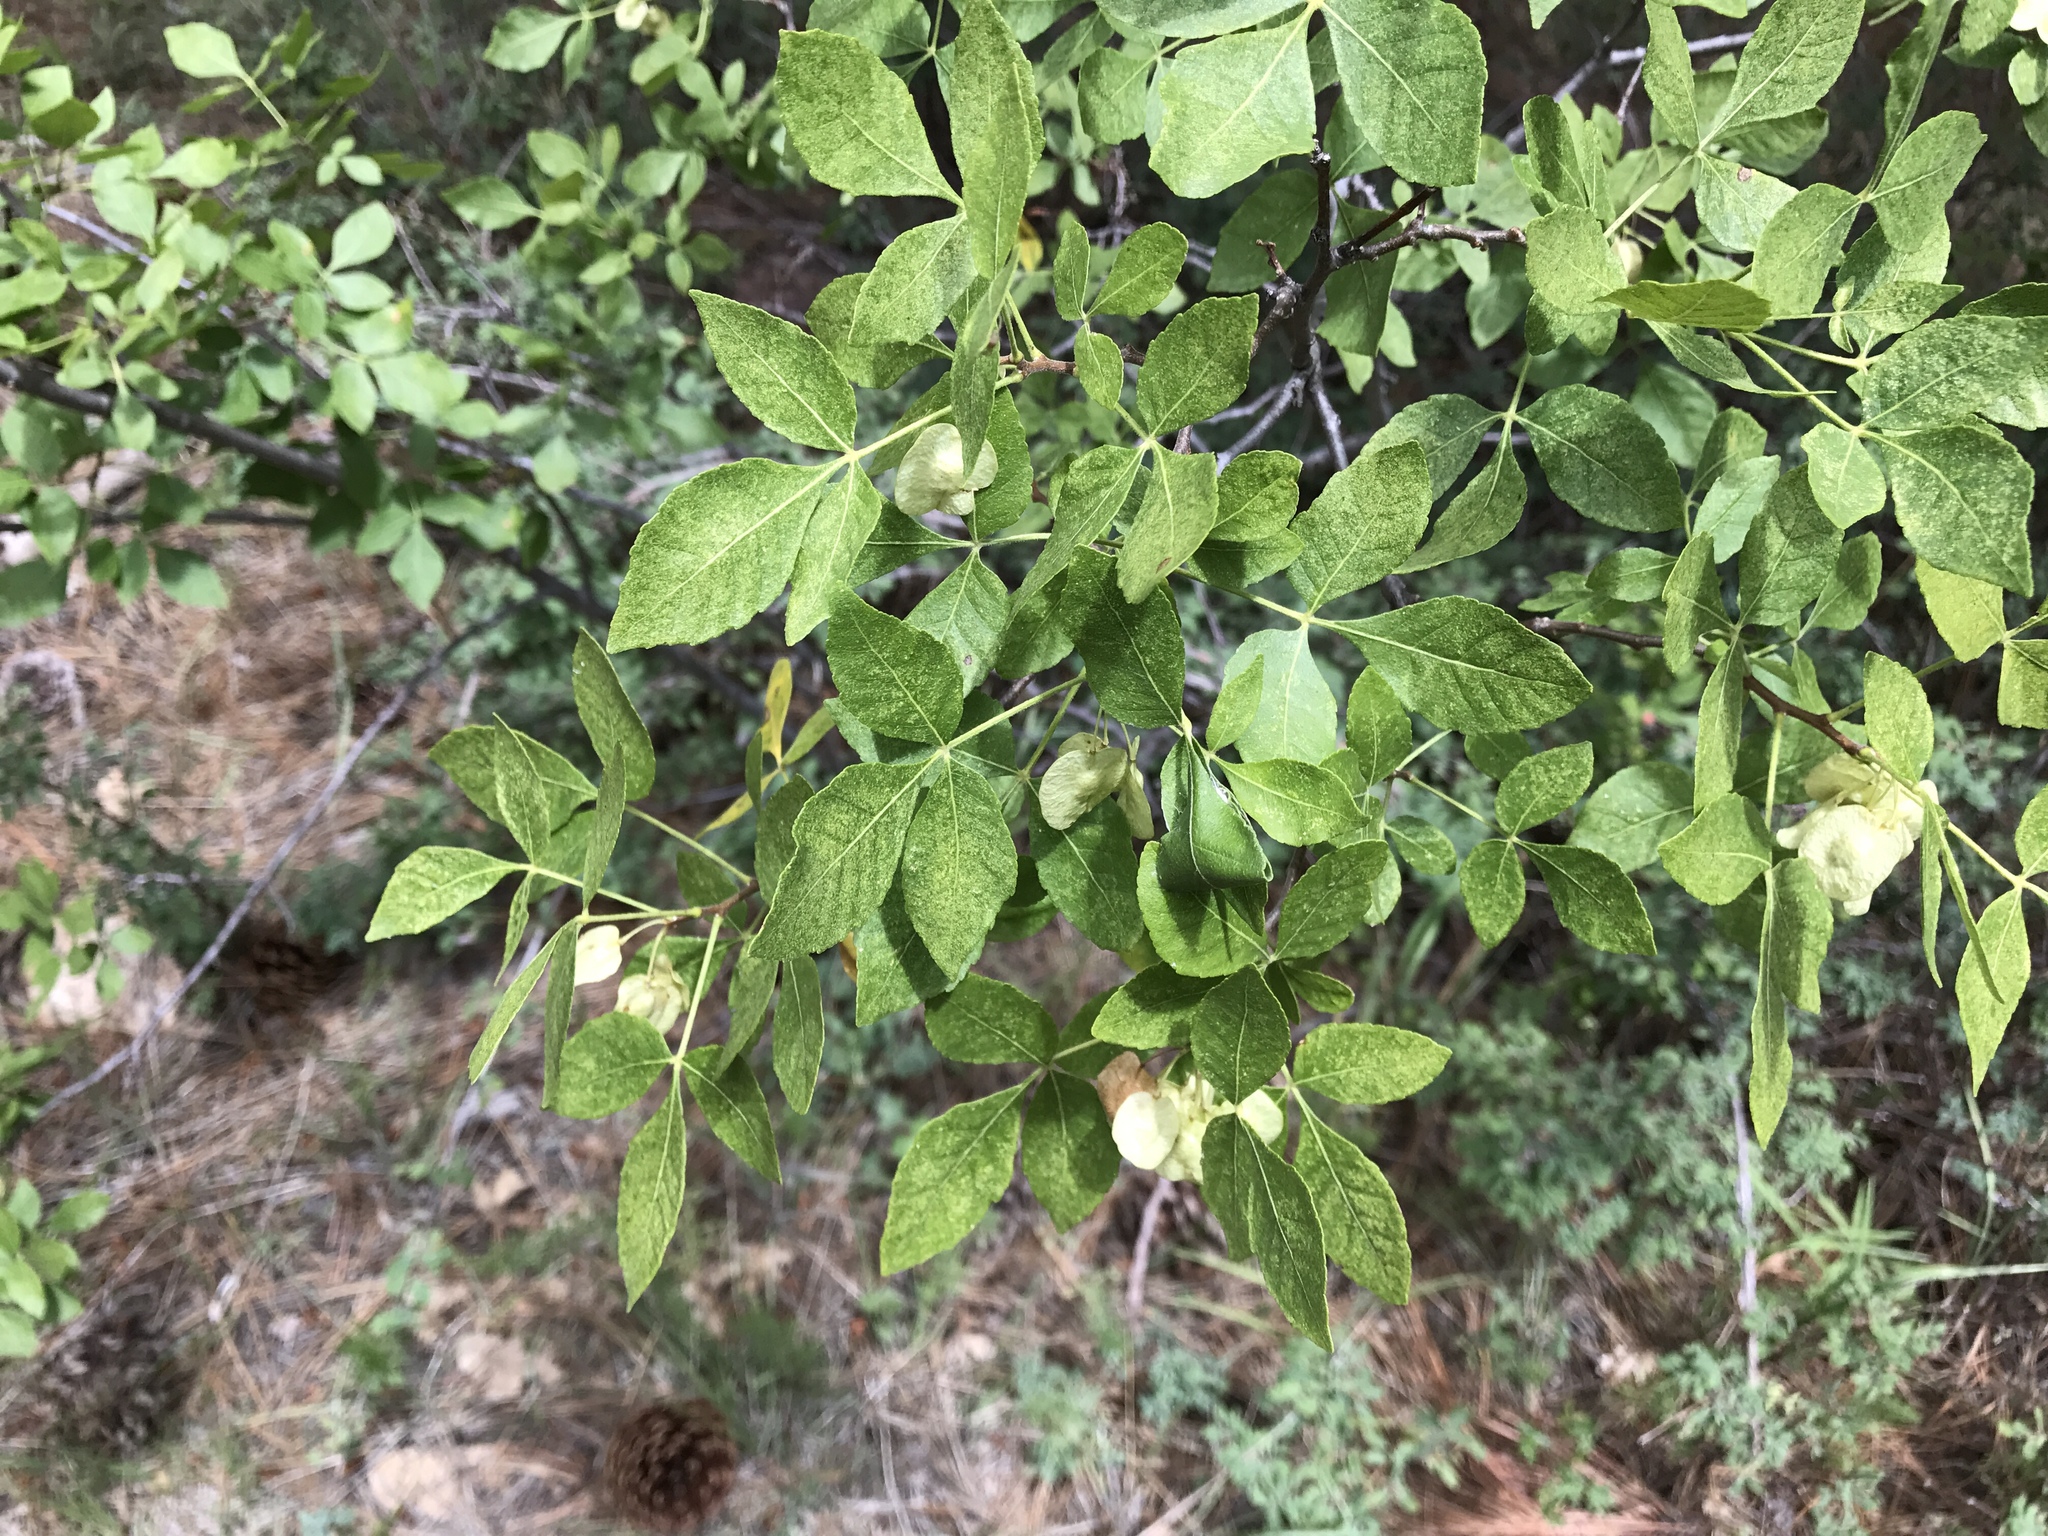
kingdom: Plantae
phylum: Tracheophyta
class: Magnoliopsida
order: Sapindales
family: Rutaceae
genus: Ptelea
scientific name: Ptelea trifoliata
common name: Common hop-tree
